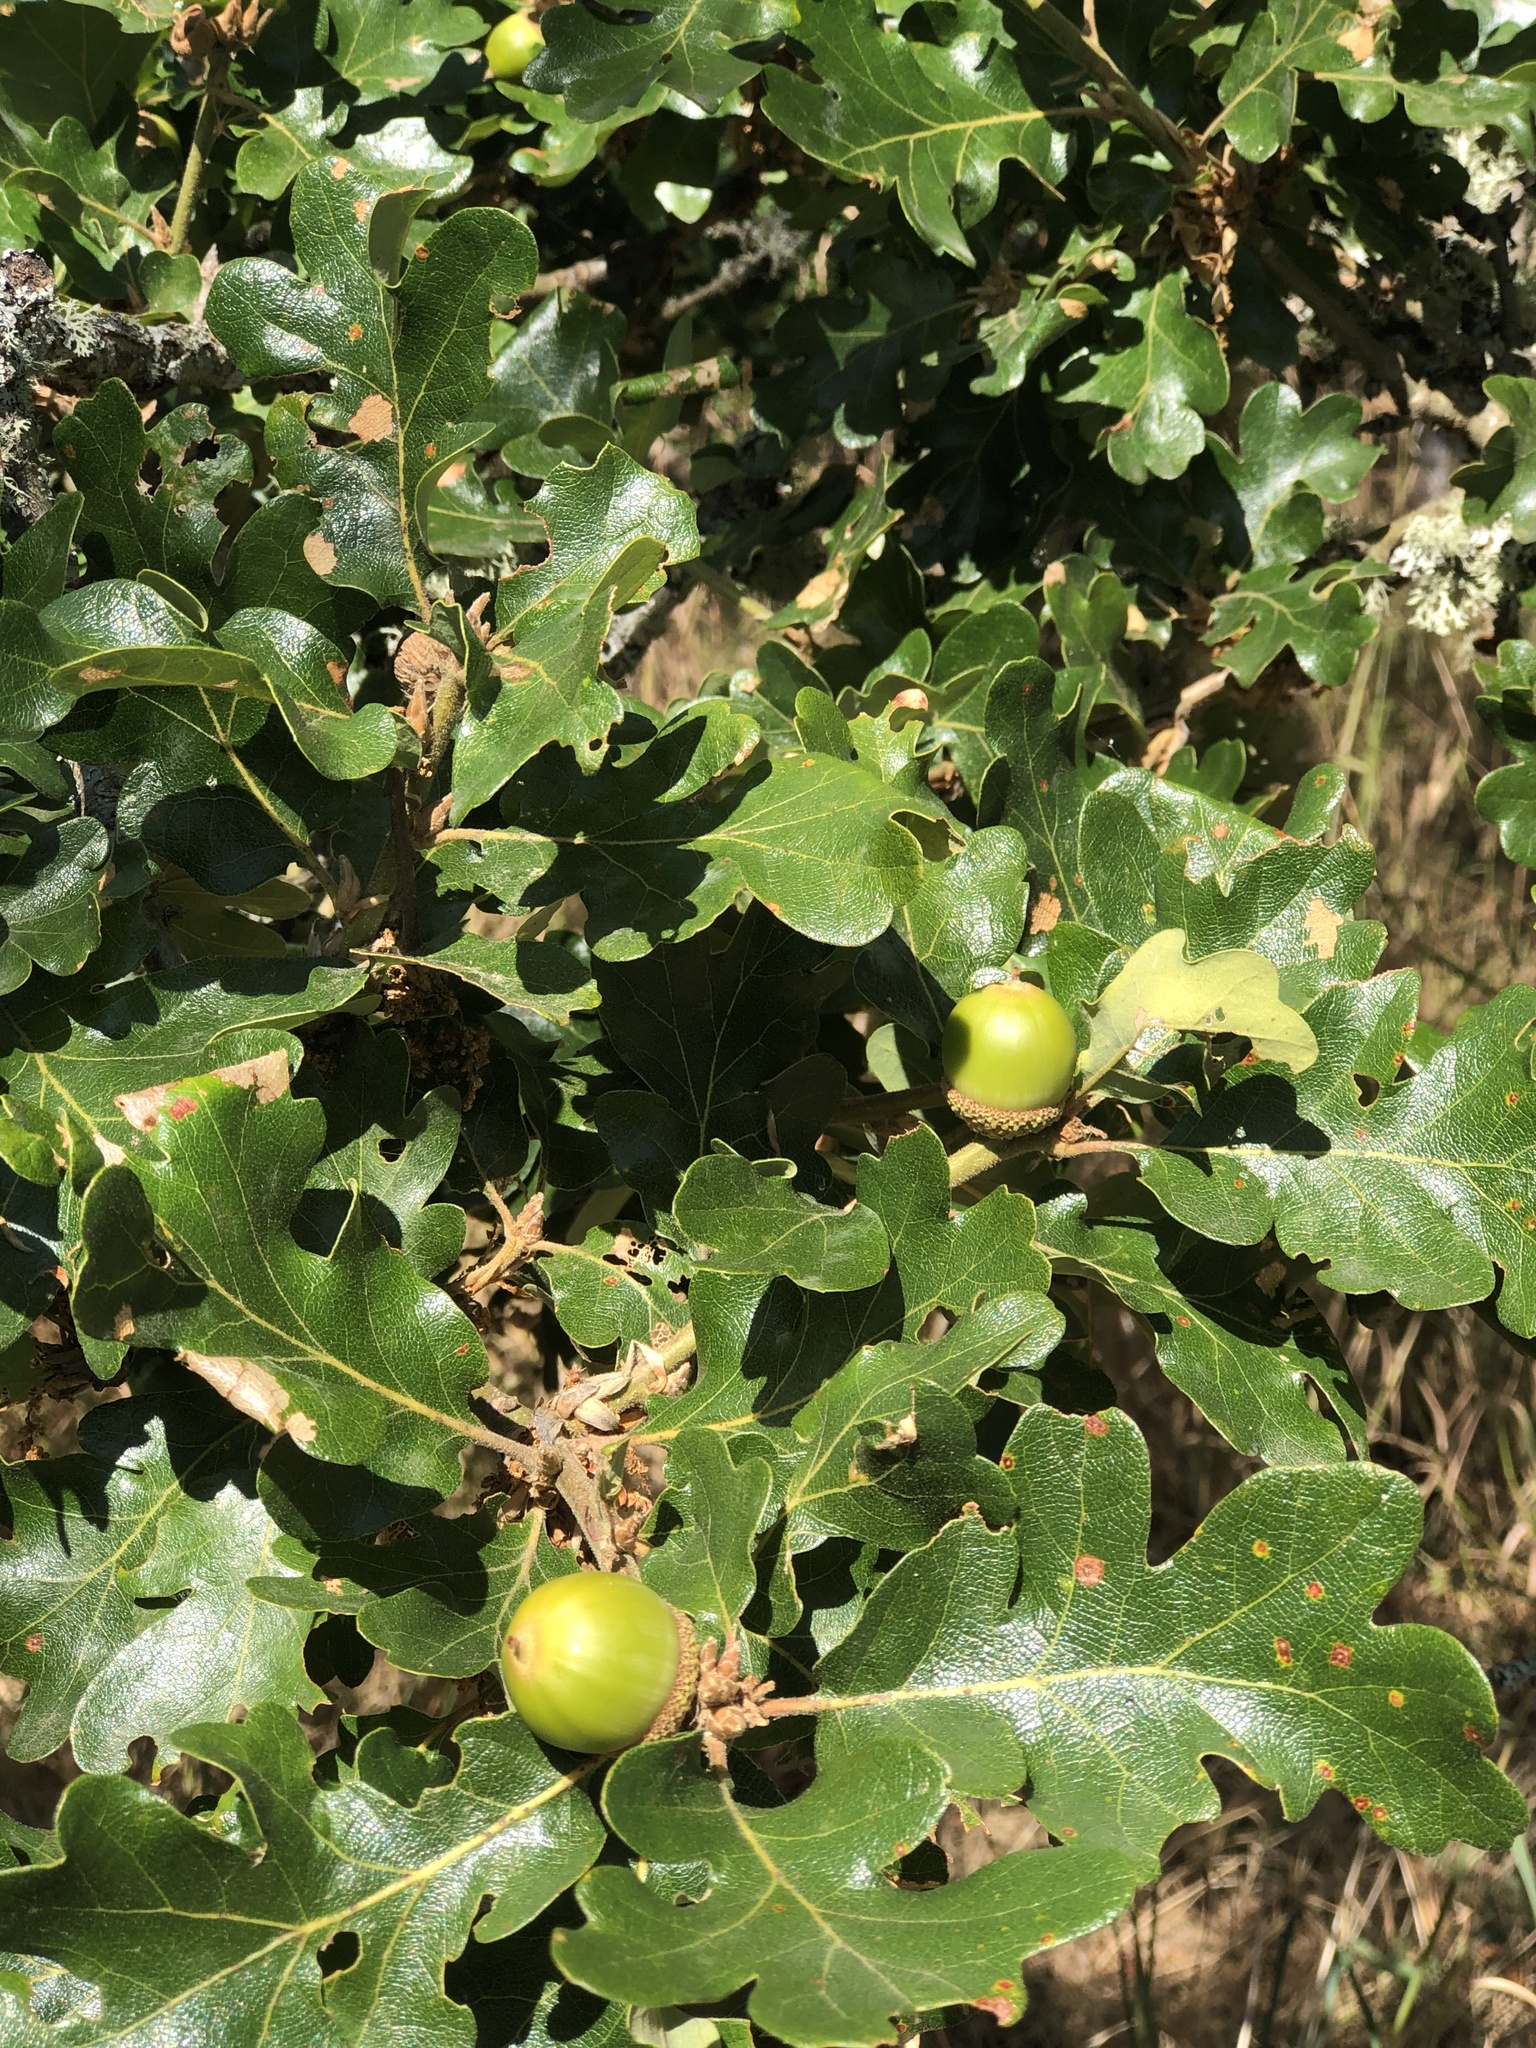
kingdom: Plantae
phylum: Tracheophyta
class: Magnoliopsida
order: Fagales
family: Fagaceae
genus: Quercus
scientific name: Quercus garryana
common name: Garry oak
